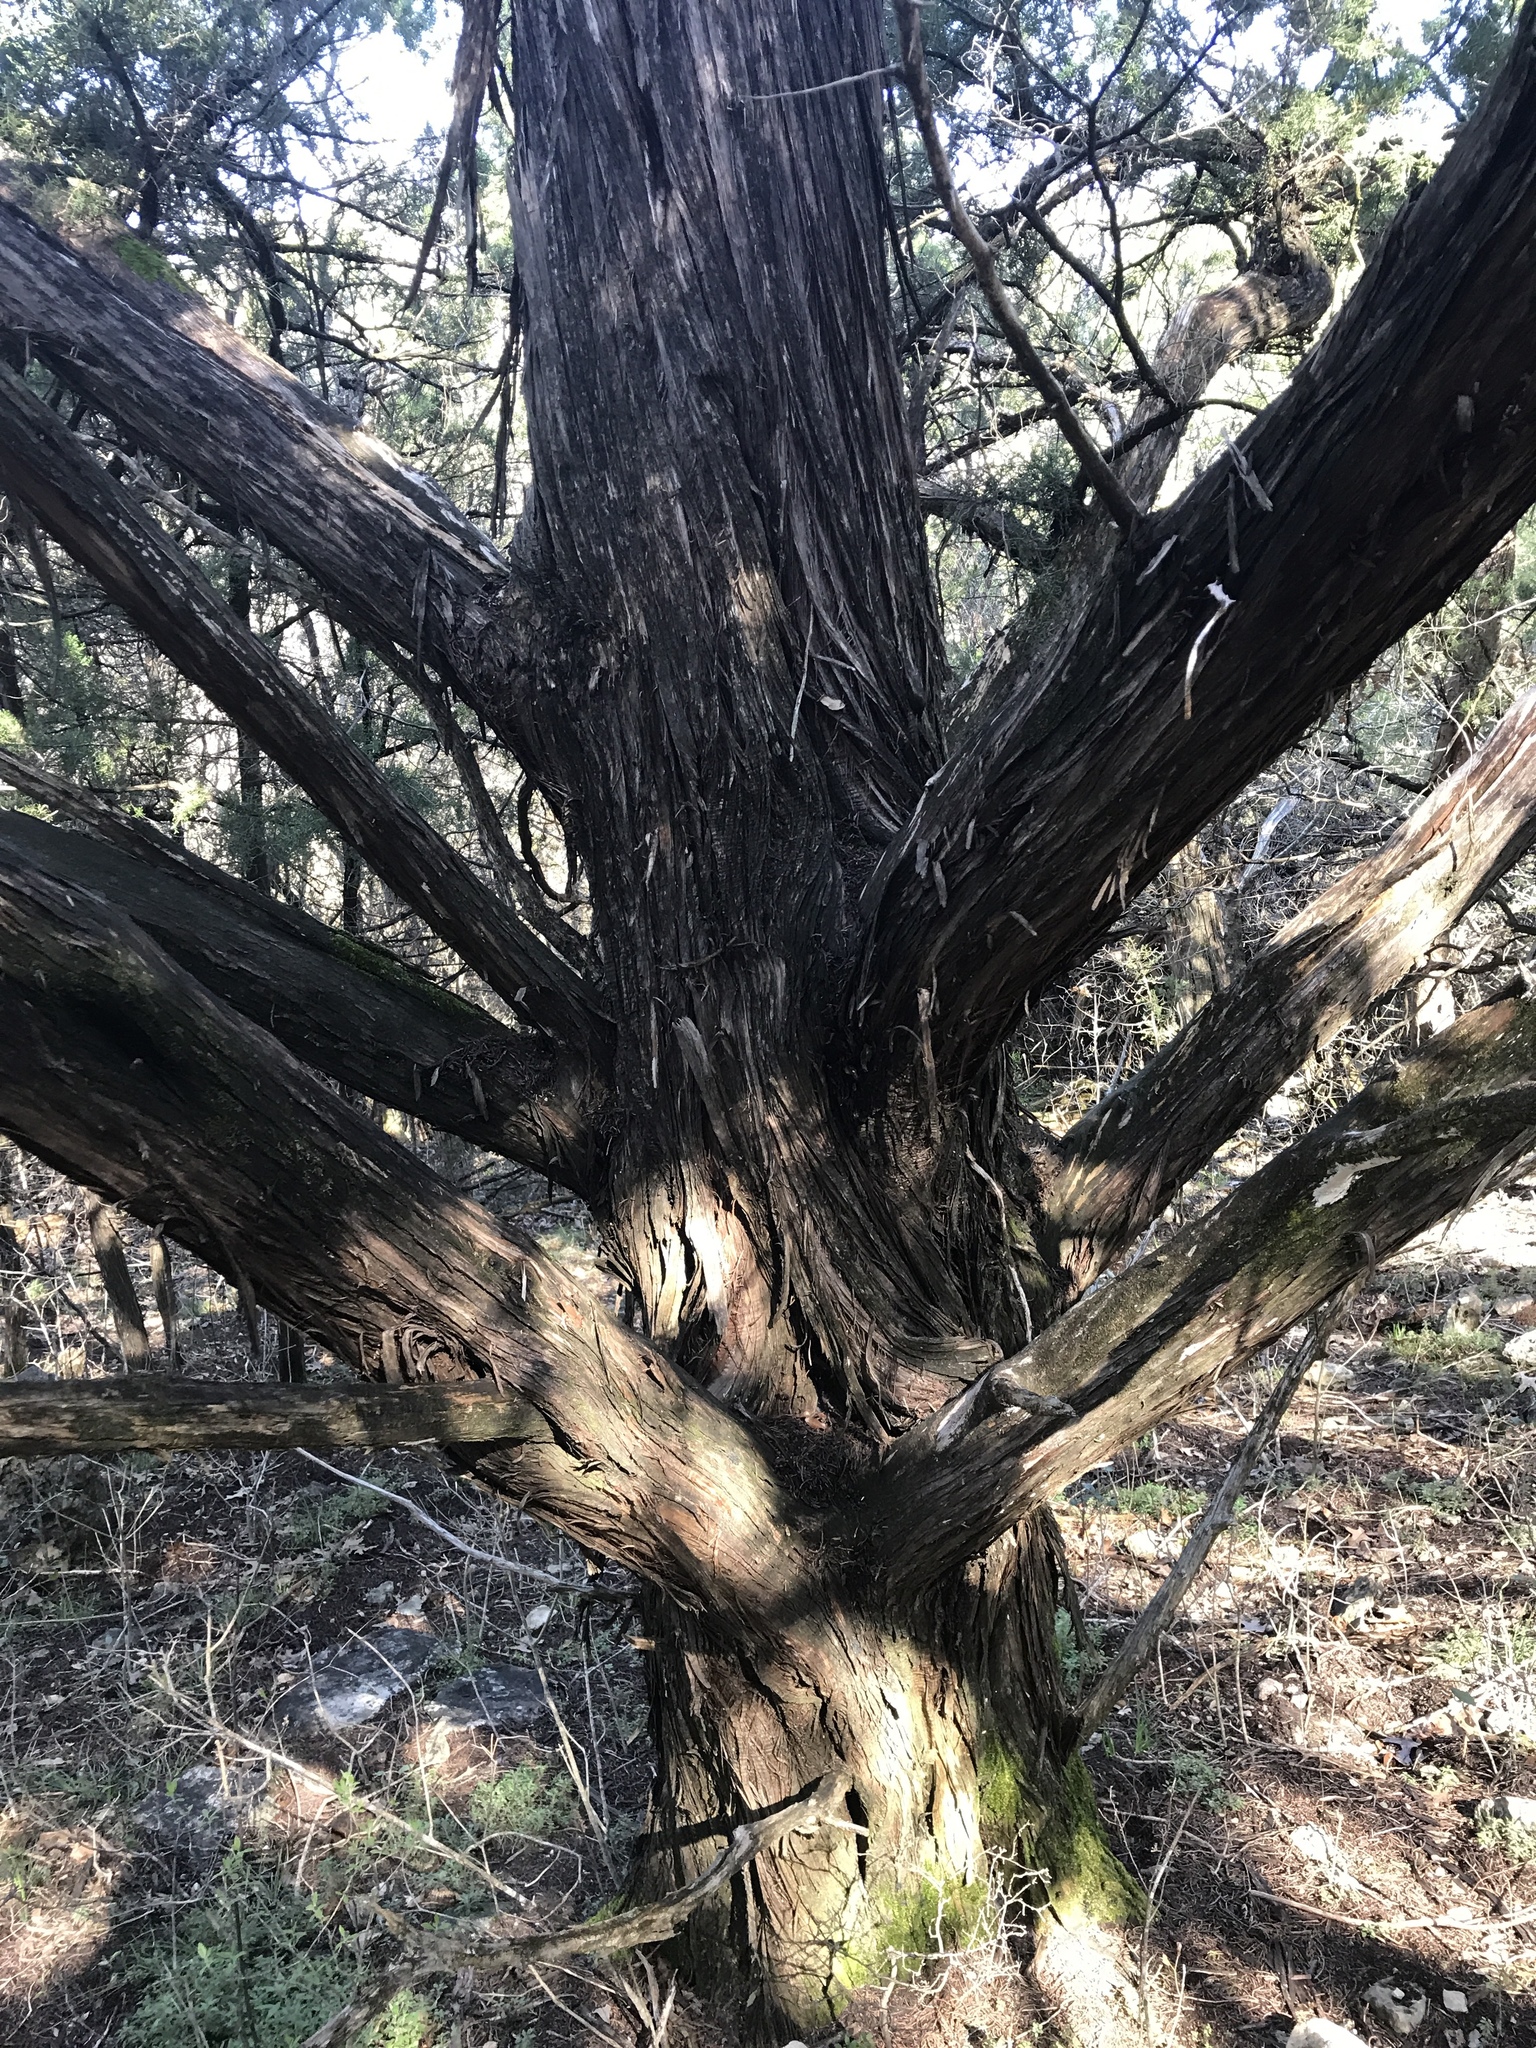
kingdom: Plantae
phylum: Tracheophyta
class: Pinopsida
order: Pinales
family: Cupressaceae
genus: Juniperus
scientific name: Juniperus ashei
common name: Mexican juniper
